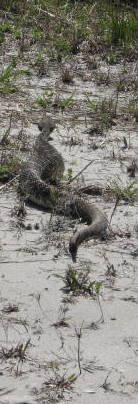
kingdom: Animalia
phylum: Chordata
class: Squamata
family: Viperidae
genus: Crotalus
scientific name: Crotalus adamanteus
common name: Eastern diamondback rattlesnake
